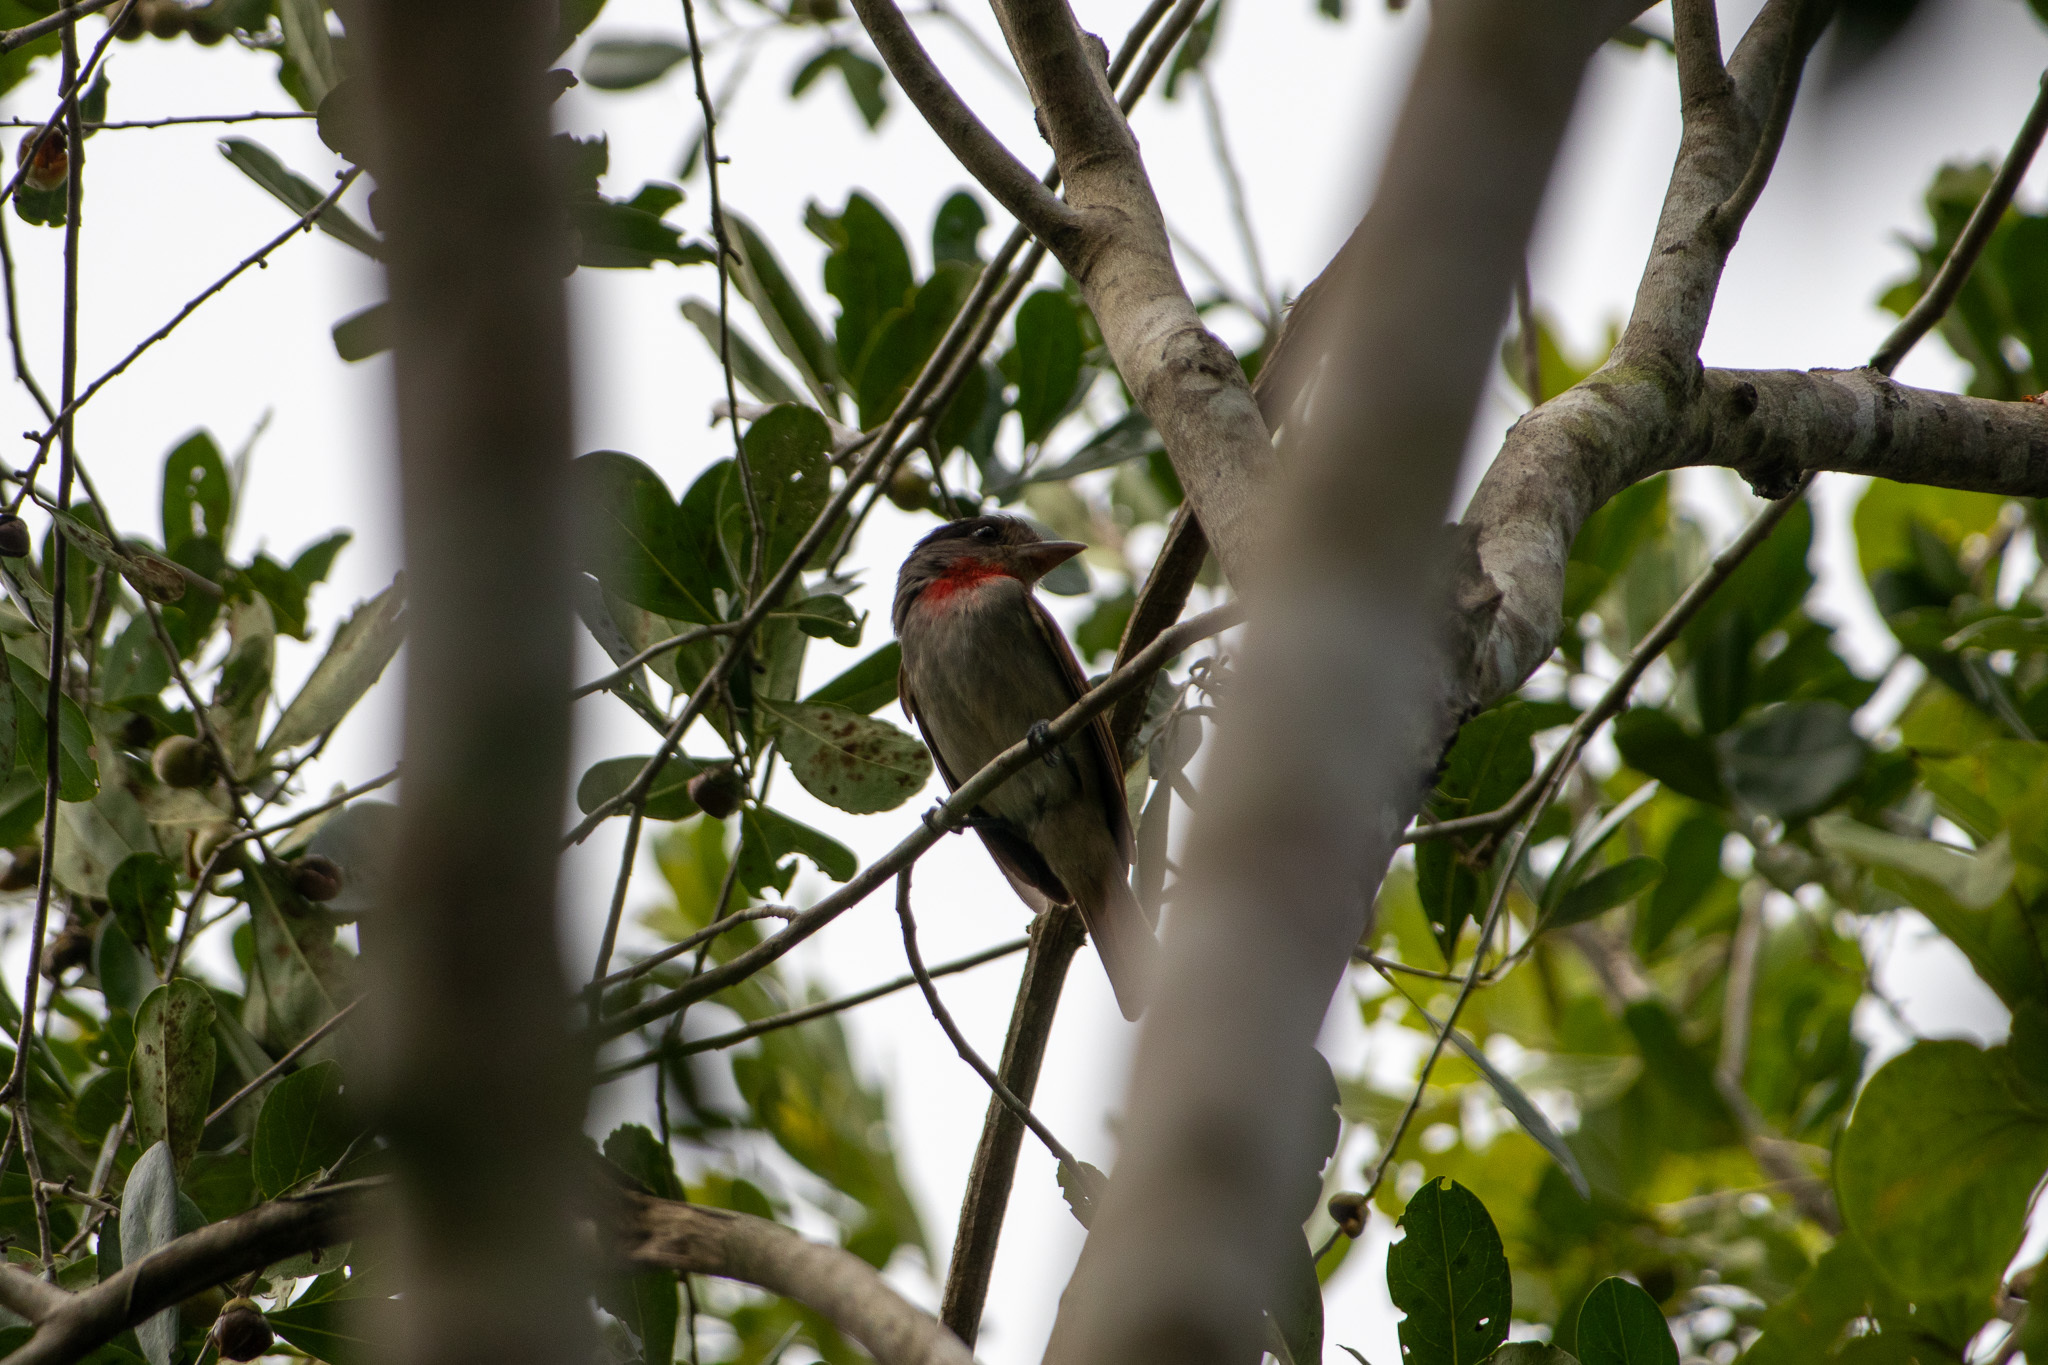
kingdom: Animalia
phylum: Chordata
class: Aves
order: Passeriformes
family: Cotingidae
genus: Pachyramphus
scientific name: Pachyramphus aglaiae
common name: Rose-throated becard
